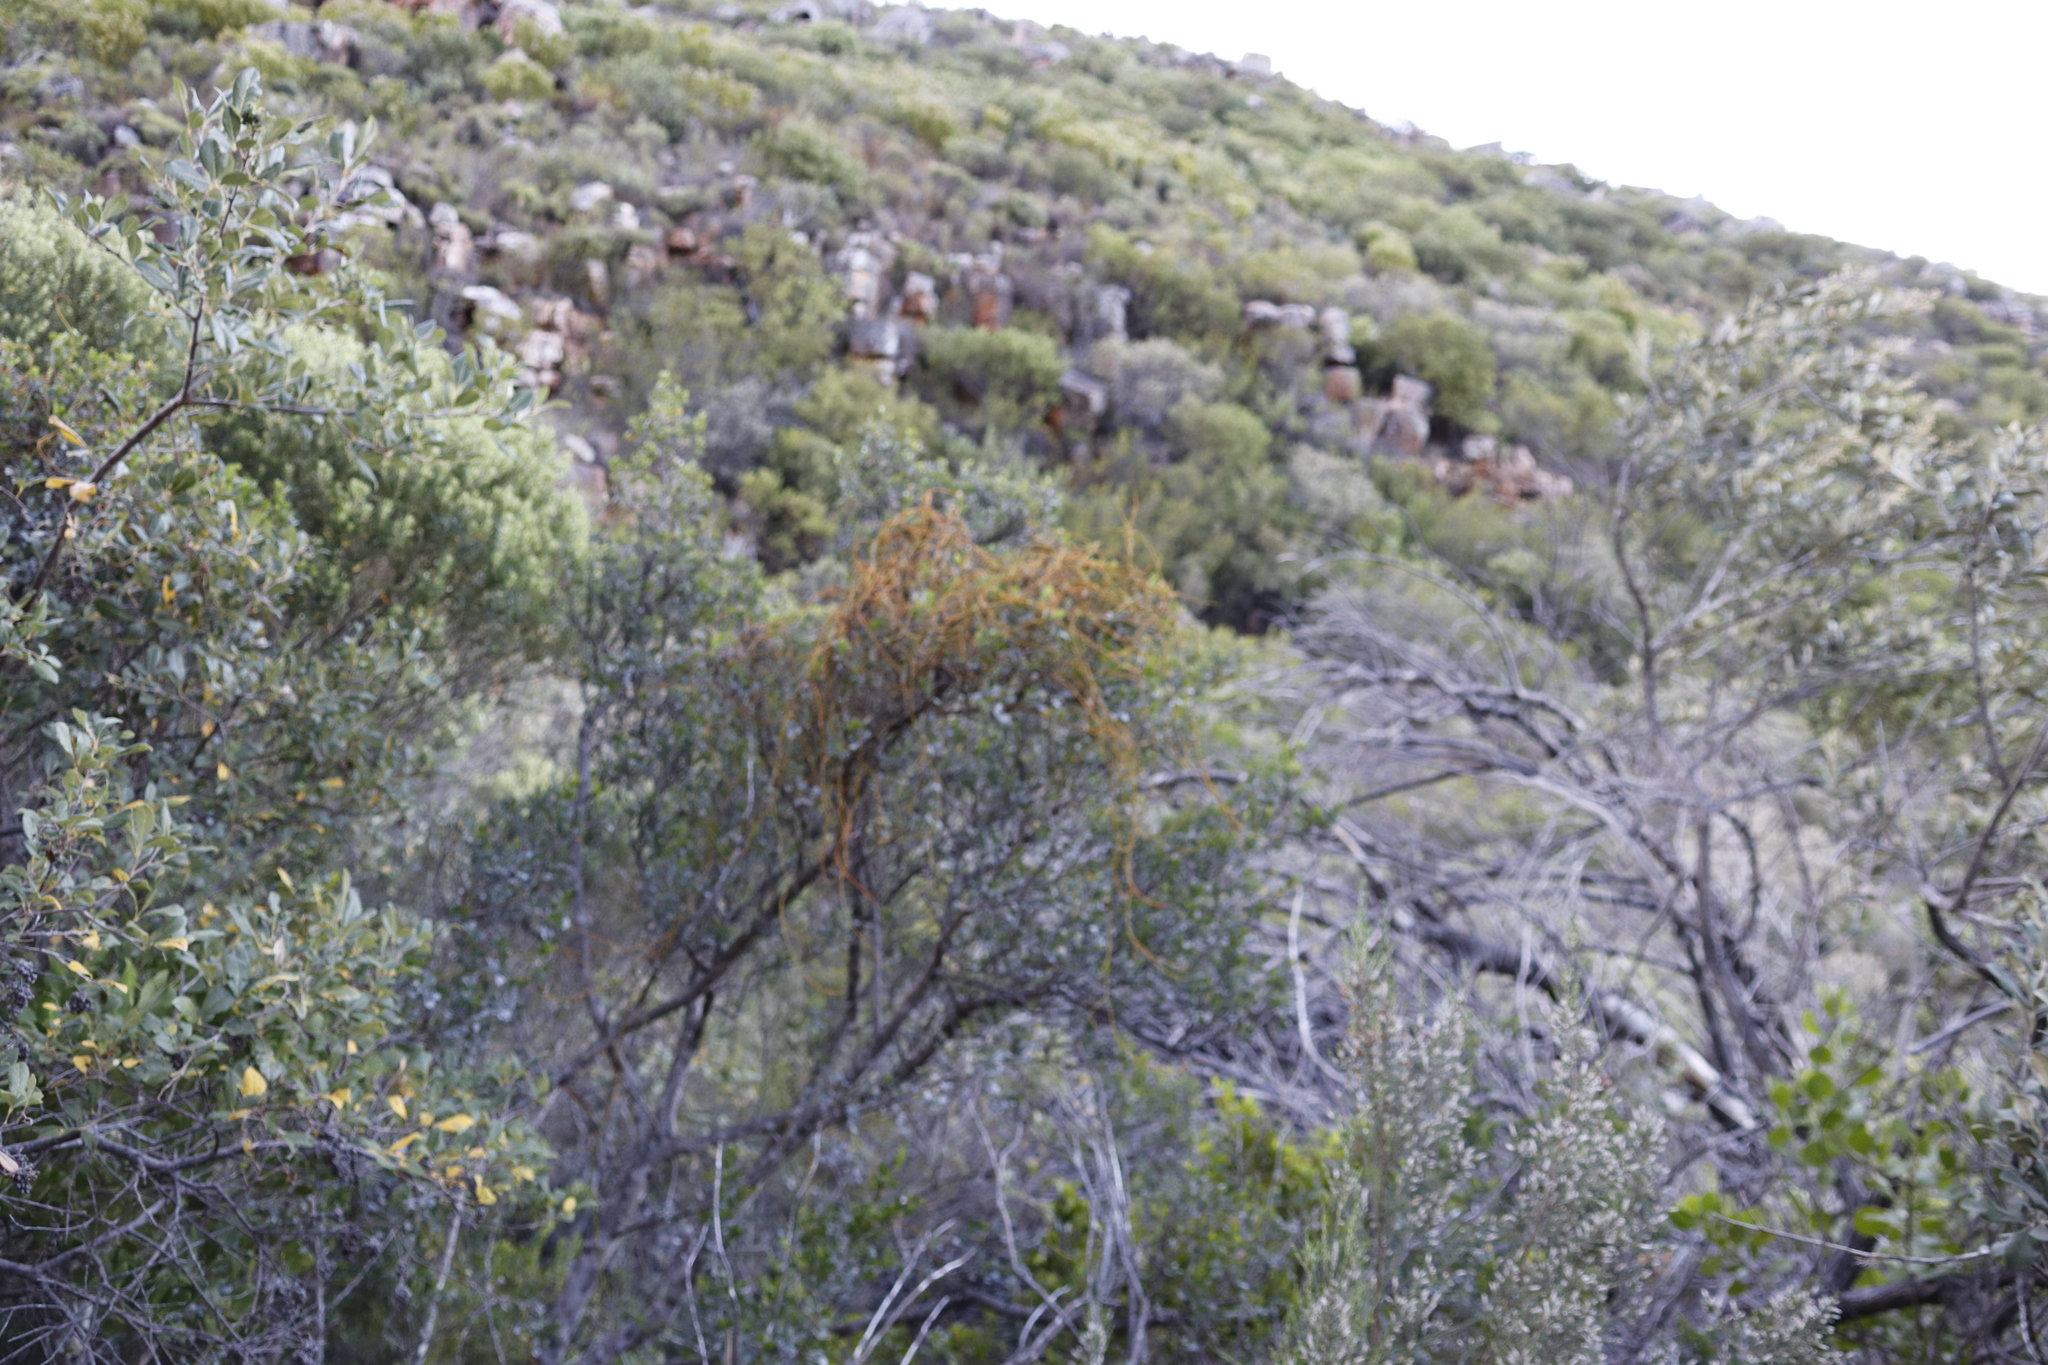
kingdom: Plantae
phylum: Tracheophyta
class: Magnoliopsida
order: Laurales
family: Lauraceae
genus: Cassytha
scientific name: Cassytha ciliolata
